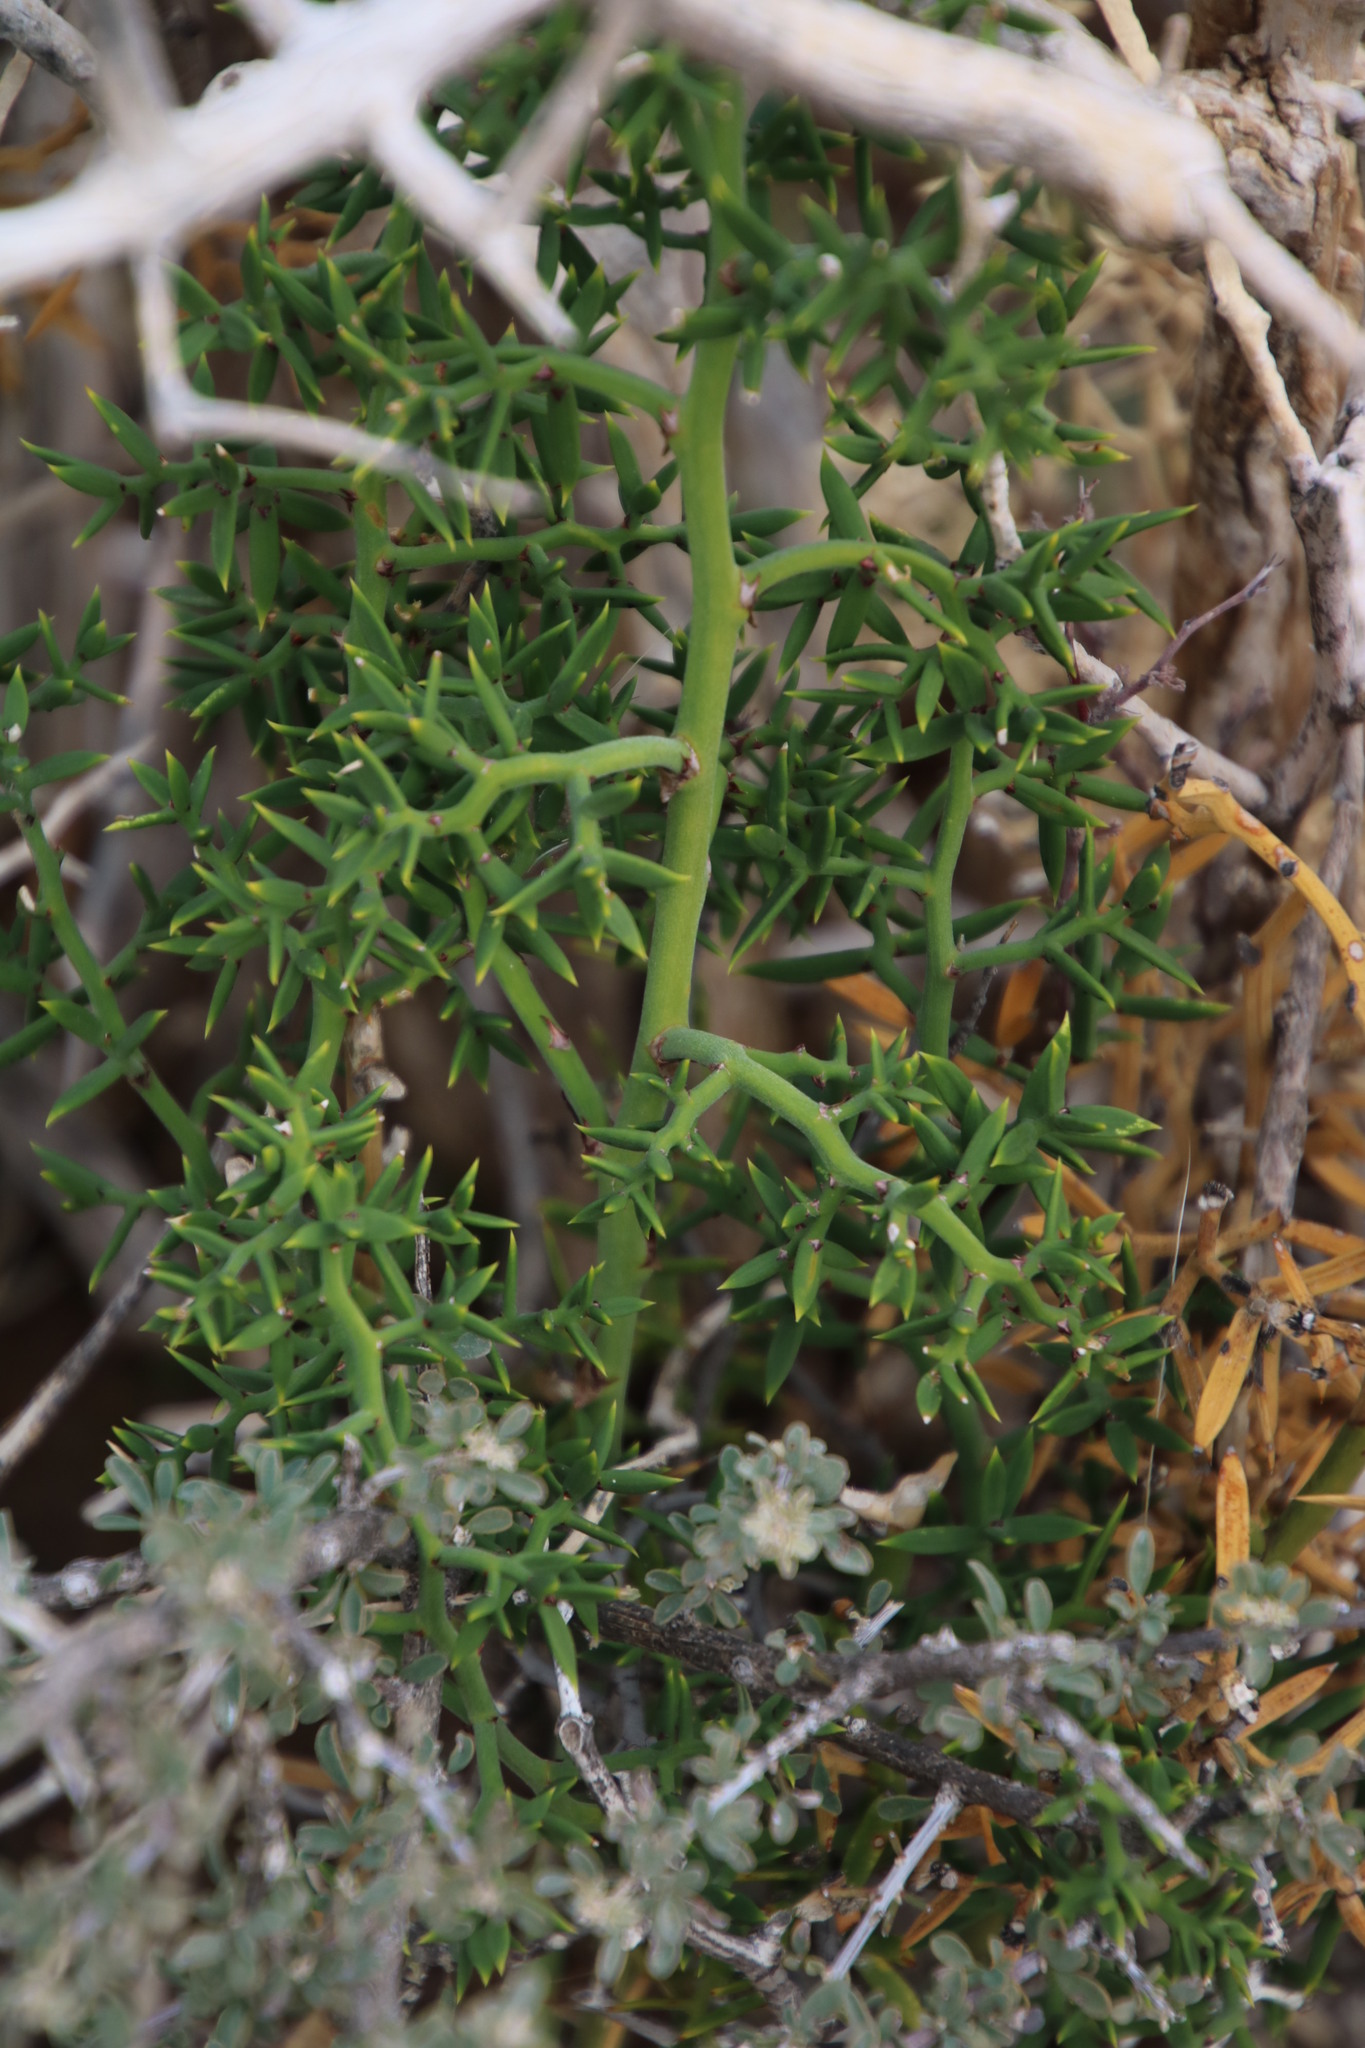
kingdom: Plantae
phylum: Tracheophyta
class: Liliopsida
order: Asparagales
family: Asparagaceae
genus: Asparagus
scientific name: Asparagus striatus
